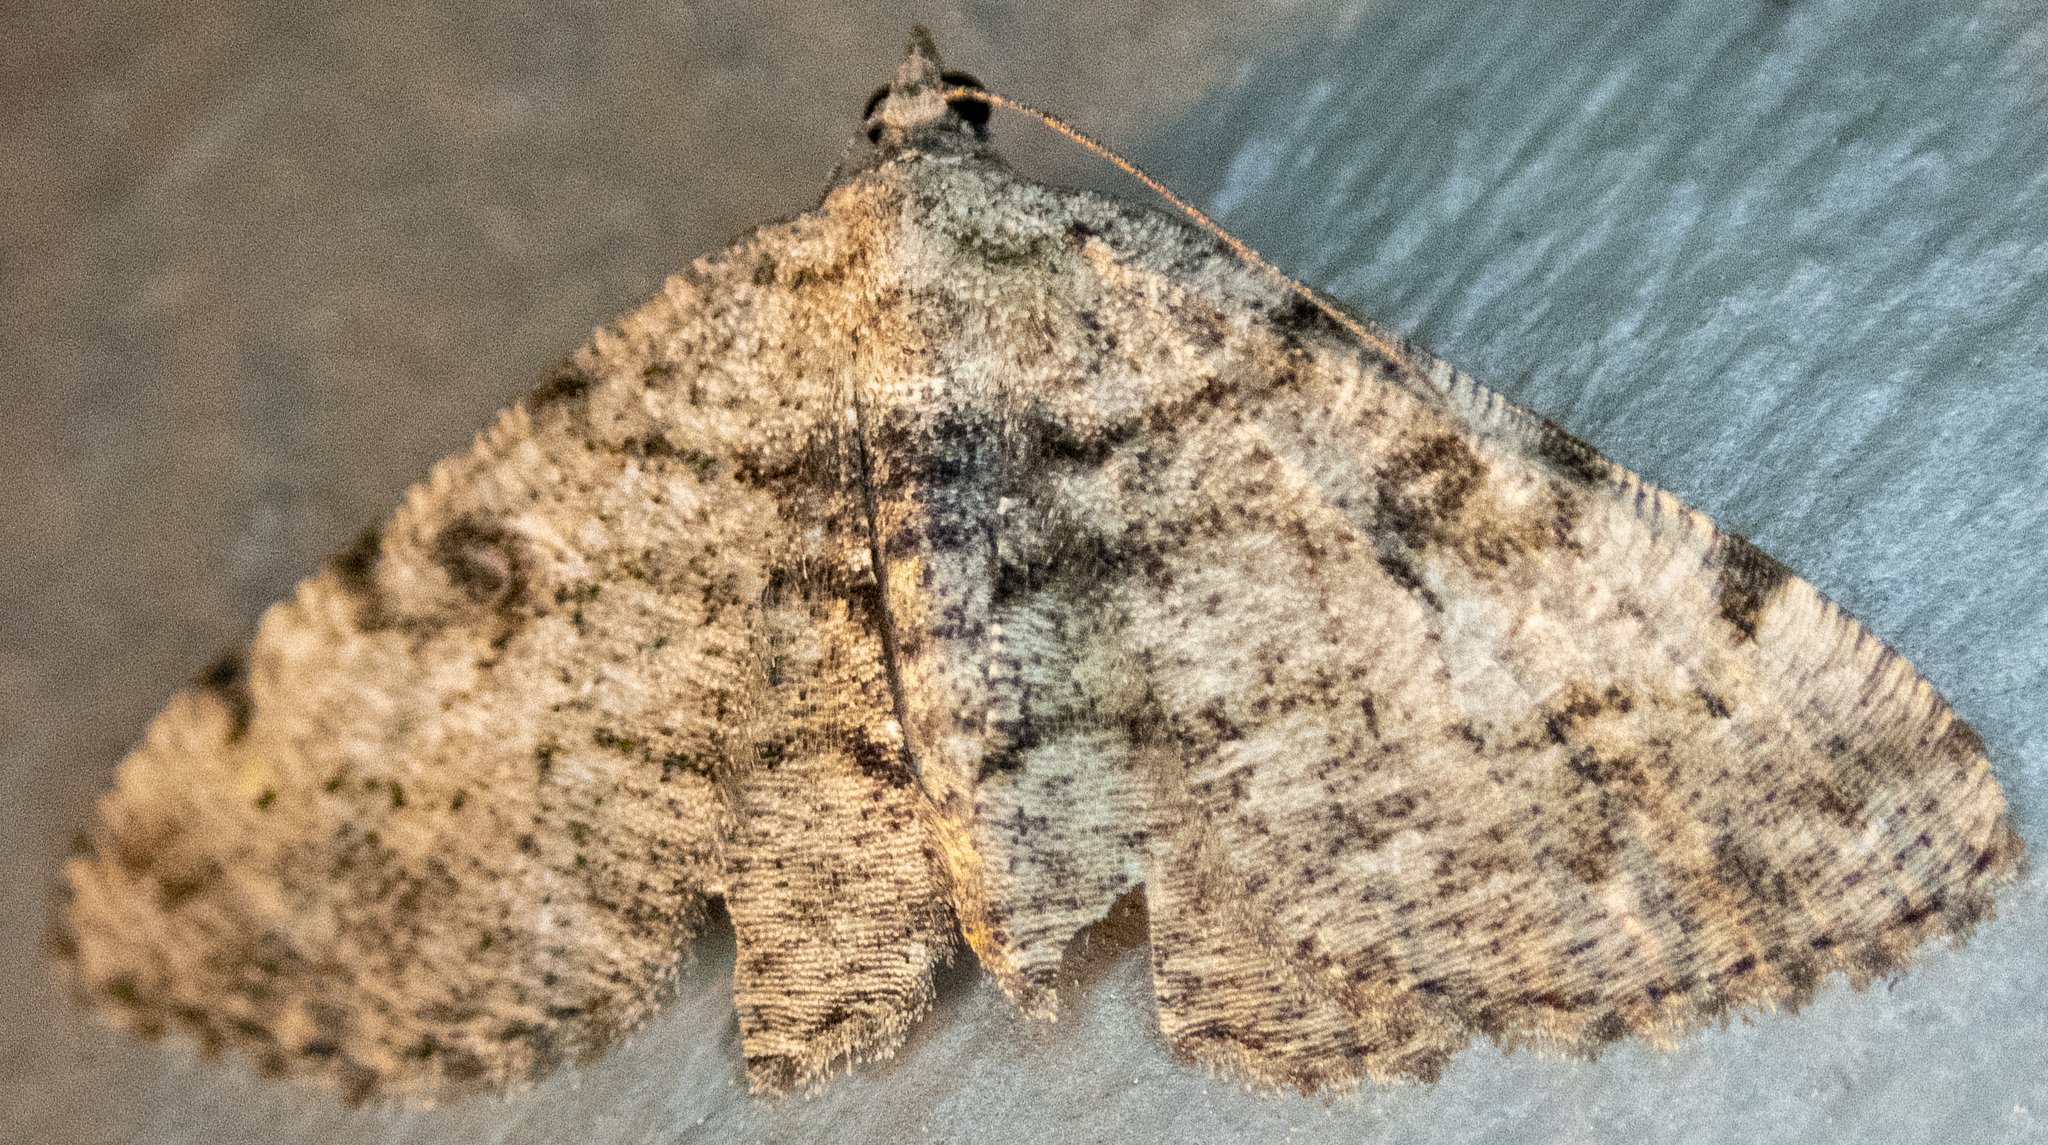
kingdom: Animalia
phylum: Arthropoda
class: Insecta
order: Lepidoptera
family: Geometridae
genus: Digrammia
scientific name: Digrammia gnophosaria
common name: Hollow-spotted angle
